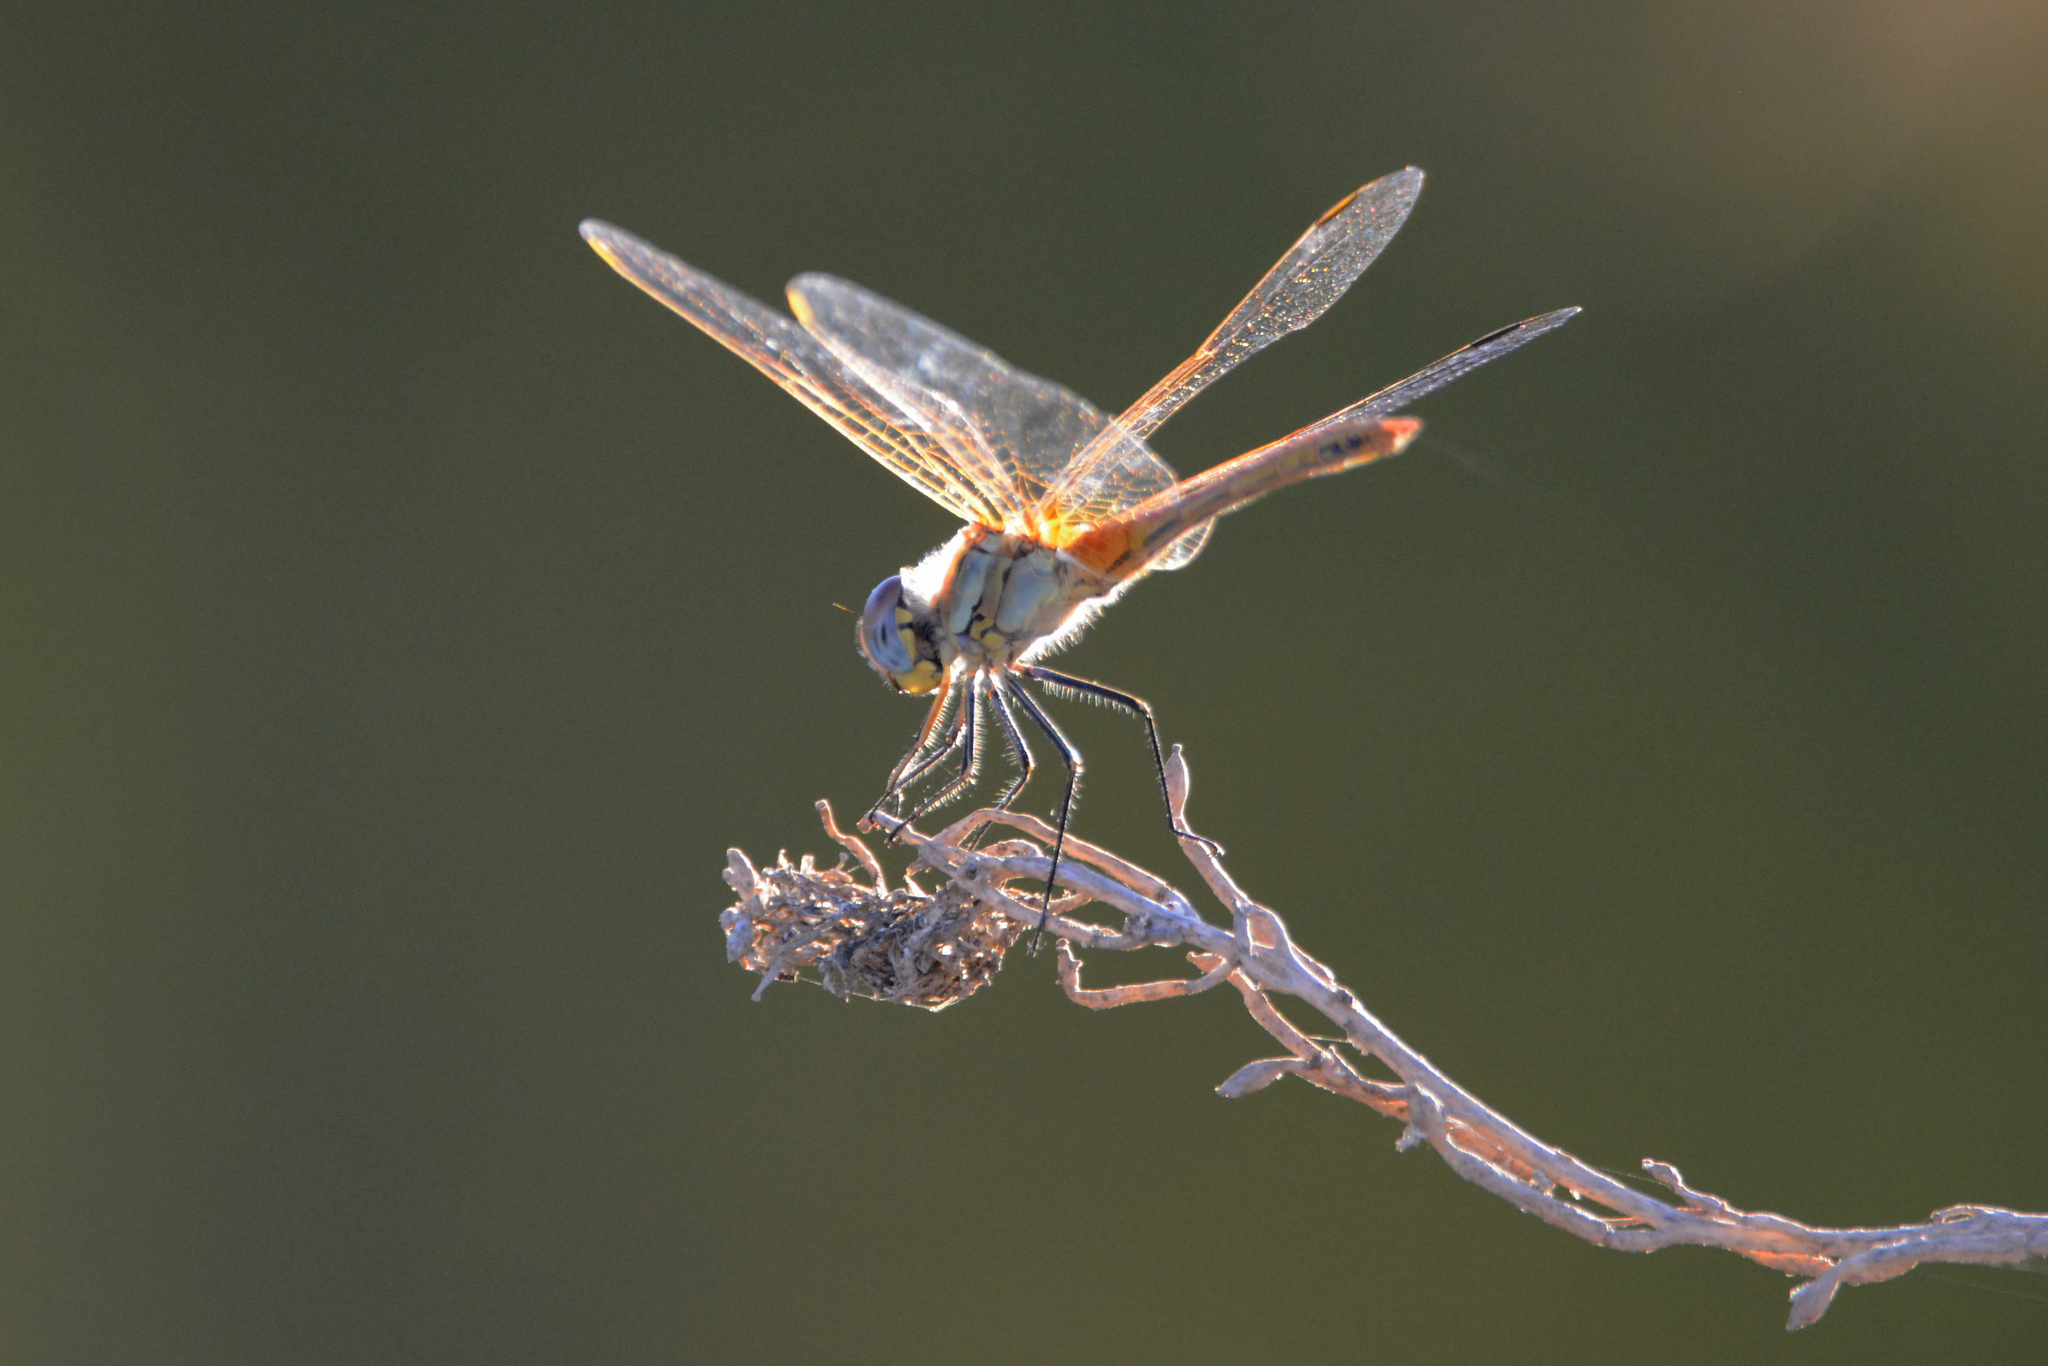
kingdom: Animalia
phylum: Arthropoda
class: Insecta
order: Odonata
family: Libellulidae
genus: Sympetrum
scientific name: Sympetrum fonscolombii
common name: Red-veined darter
